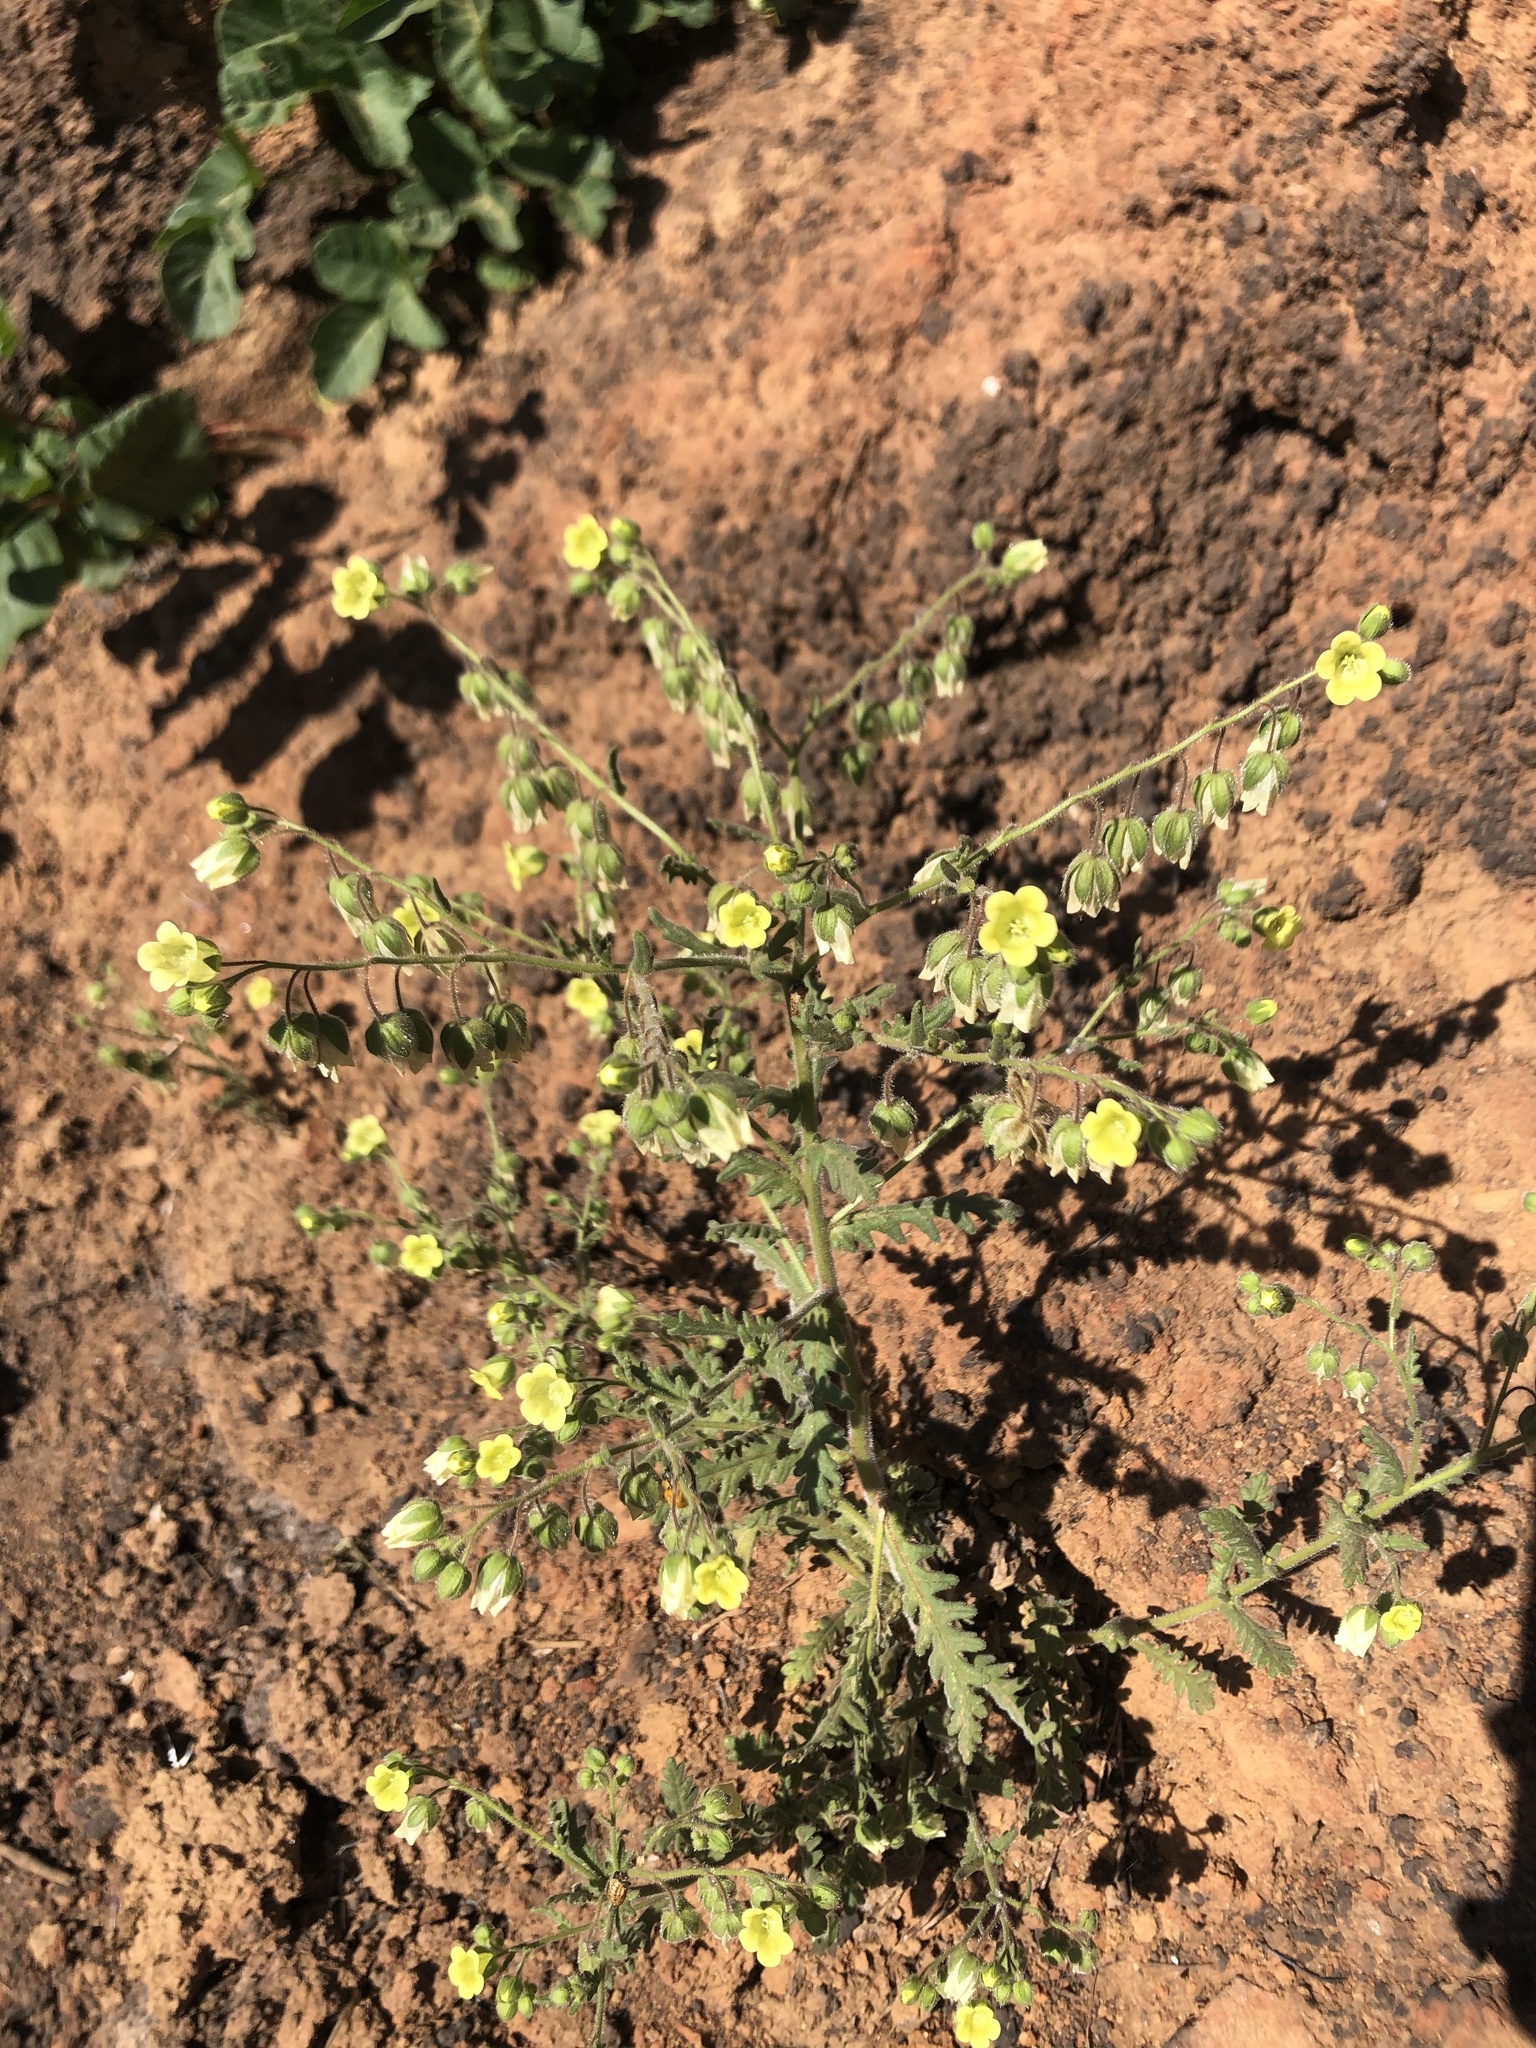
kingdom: Plantae
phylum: Tracheophyta
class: Magnoliopsida
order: Boraginales
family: Hydrophyllaceae
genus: Emmenanthe
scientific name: Emmenanthe penduliflora
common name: Whispering-bells
